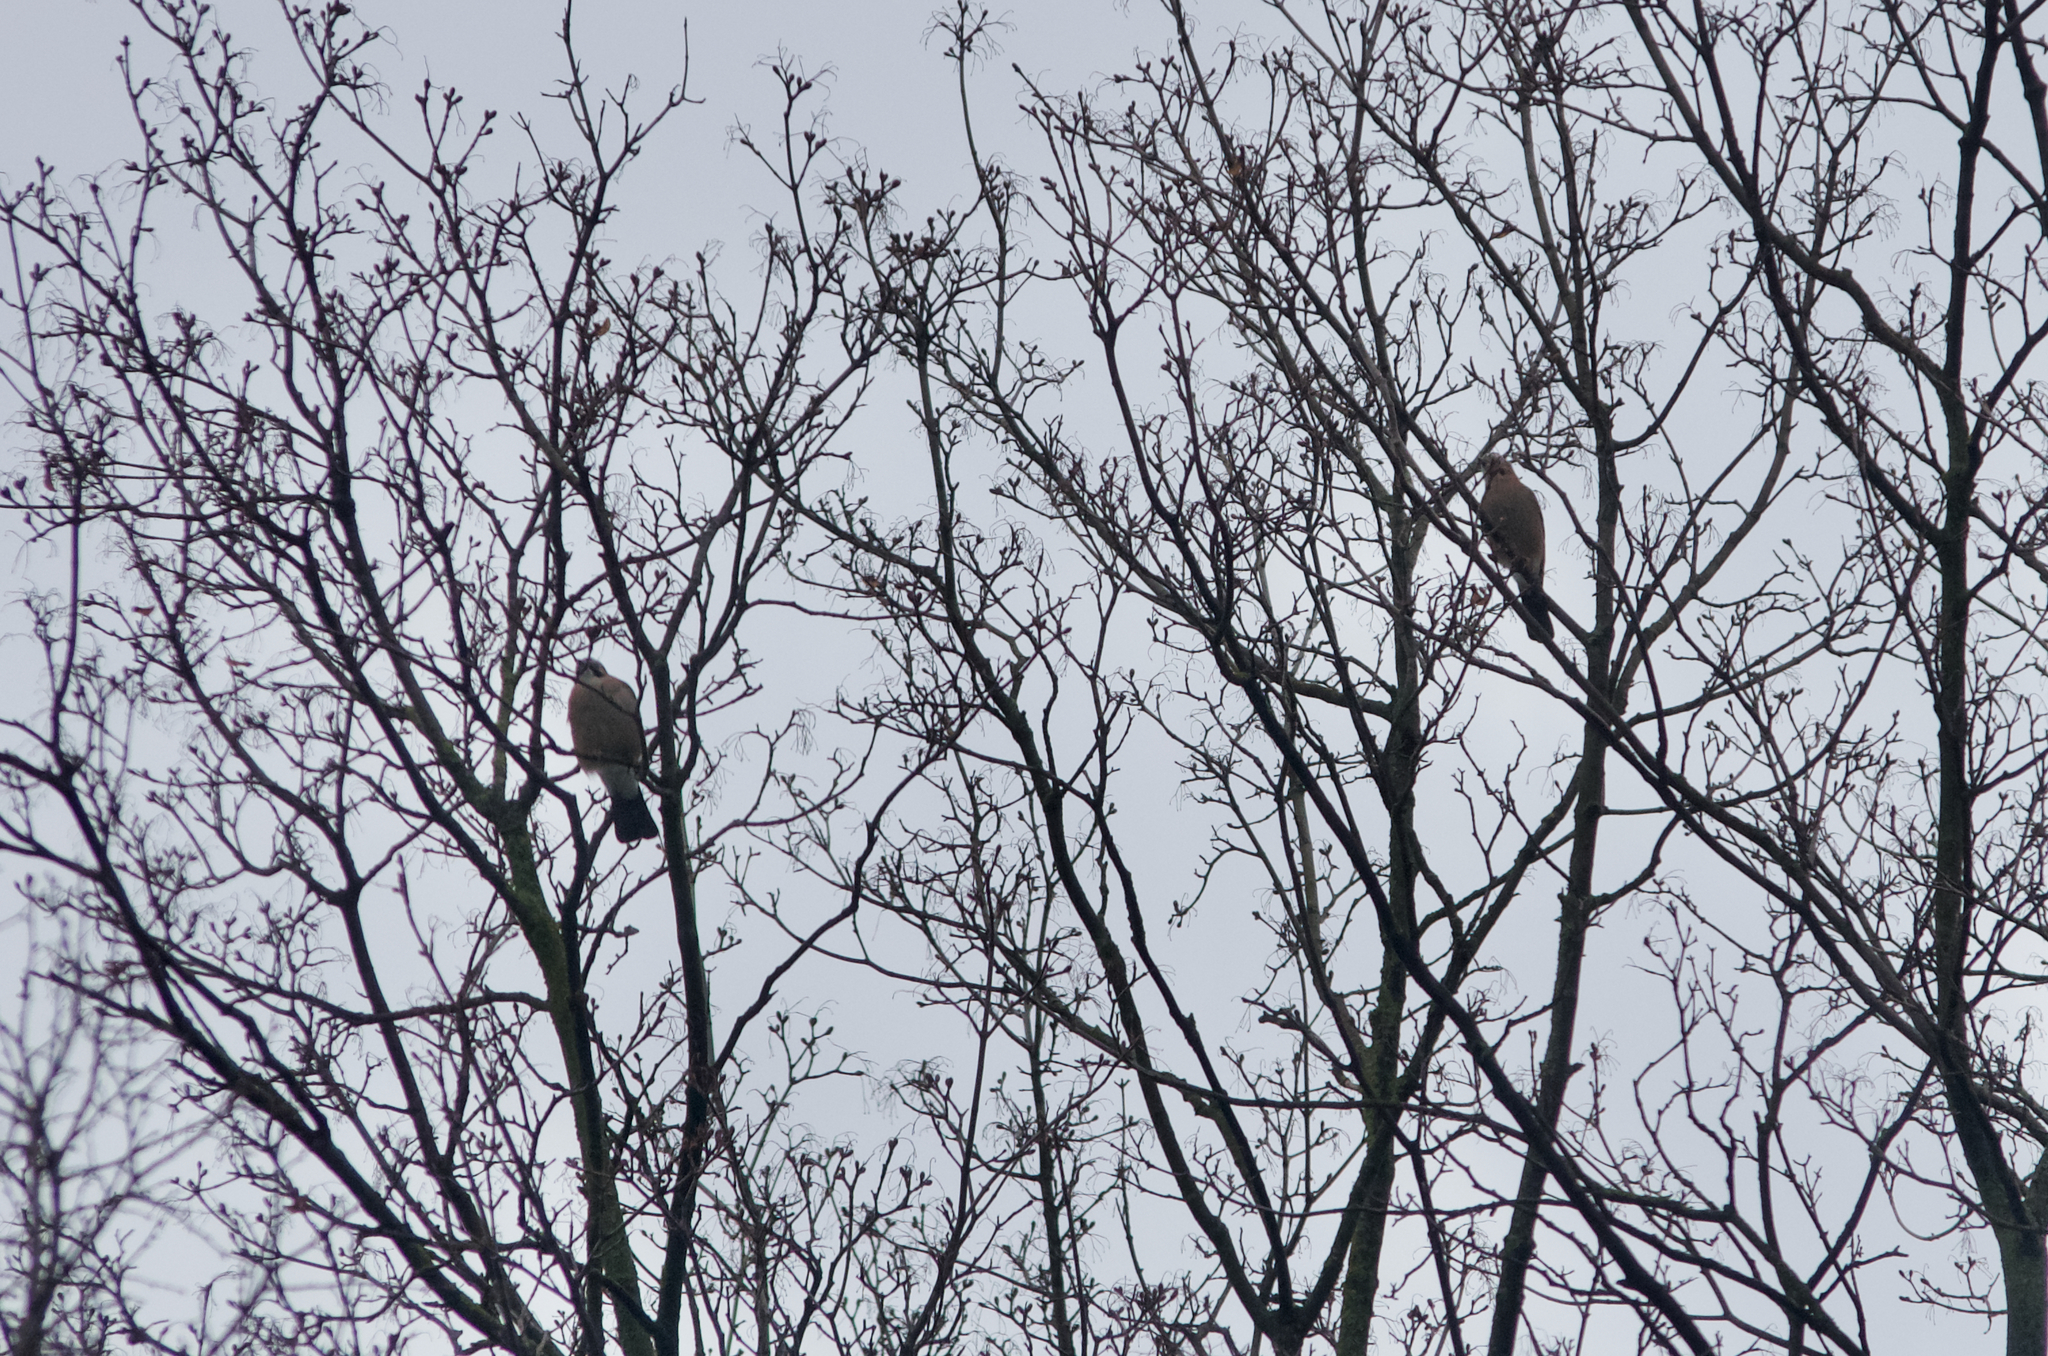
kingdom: Animalia
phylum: Chordata
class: Aves
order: Passeriformes
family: Corvidae
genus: Garrulus
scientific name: Garrulus glandarius
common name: Eurasian jay
